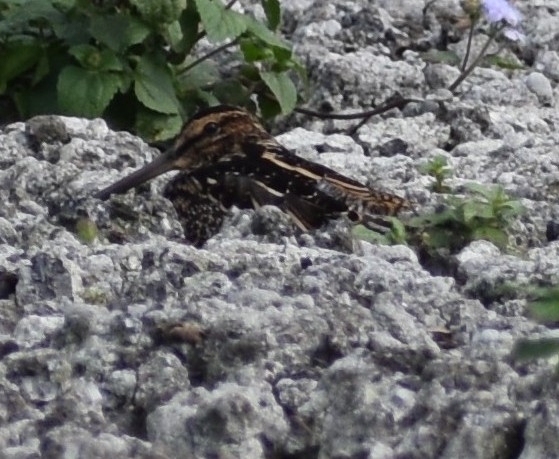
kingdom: Animalia
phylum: Chordata
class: Aves
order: Charadriiformes
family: Scolopacidae
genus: Gallinago
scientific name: Gallinago nigripennis
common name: African snipe
